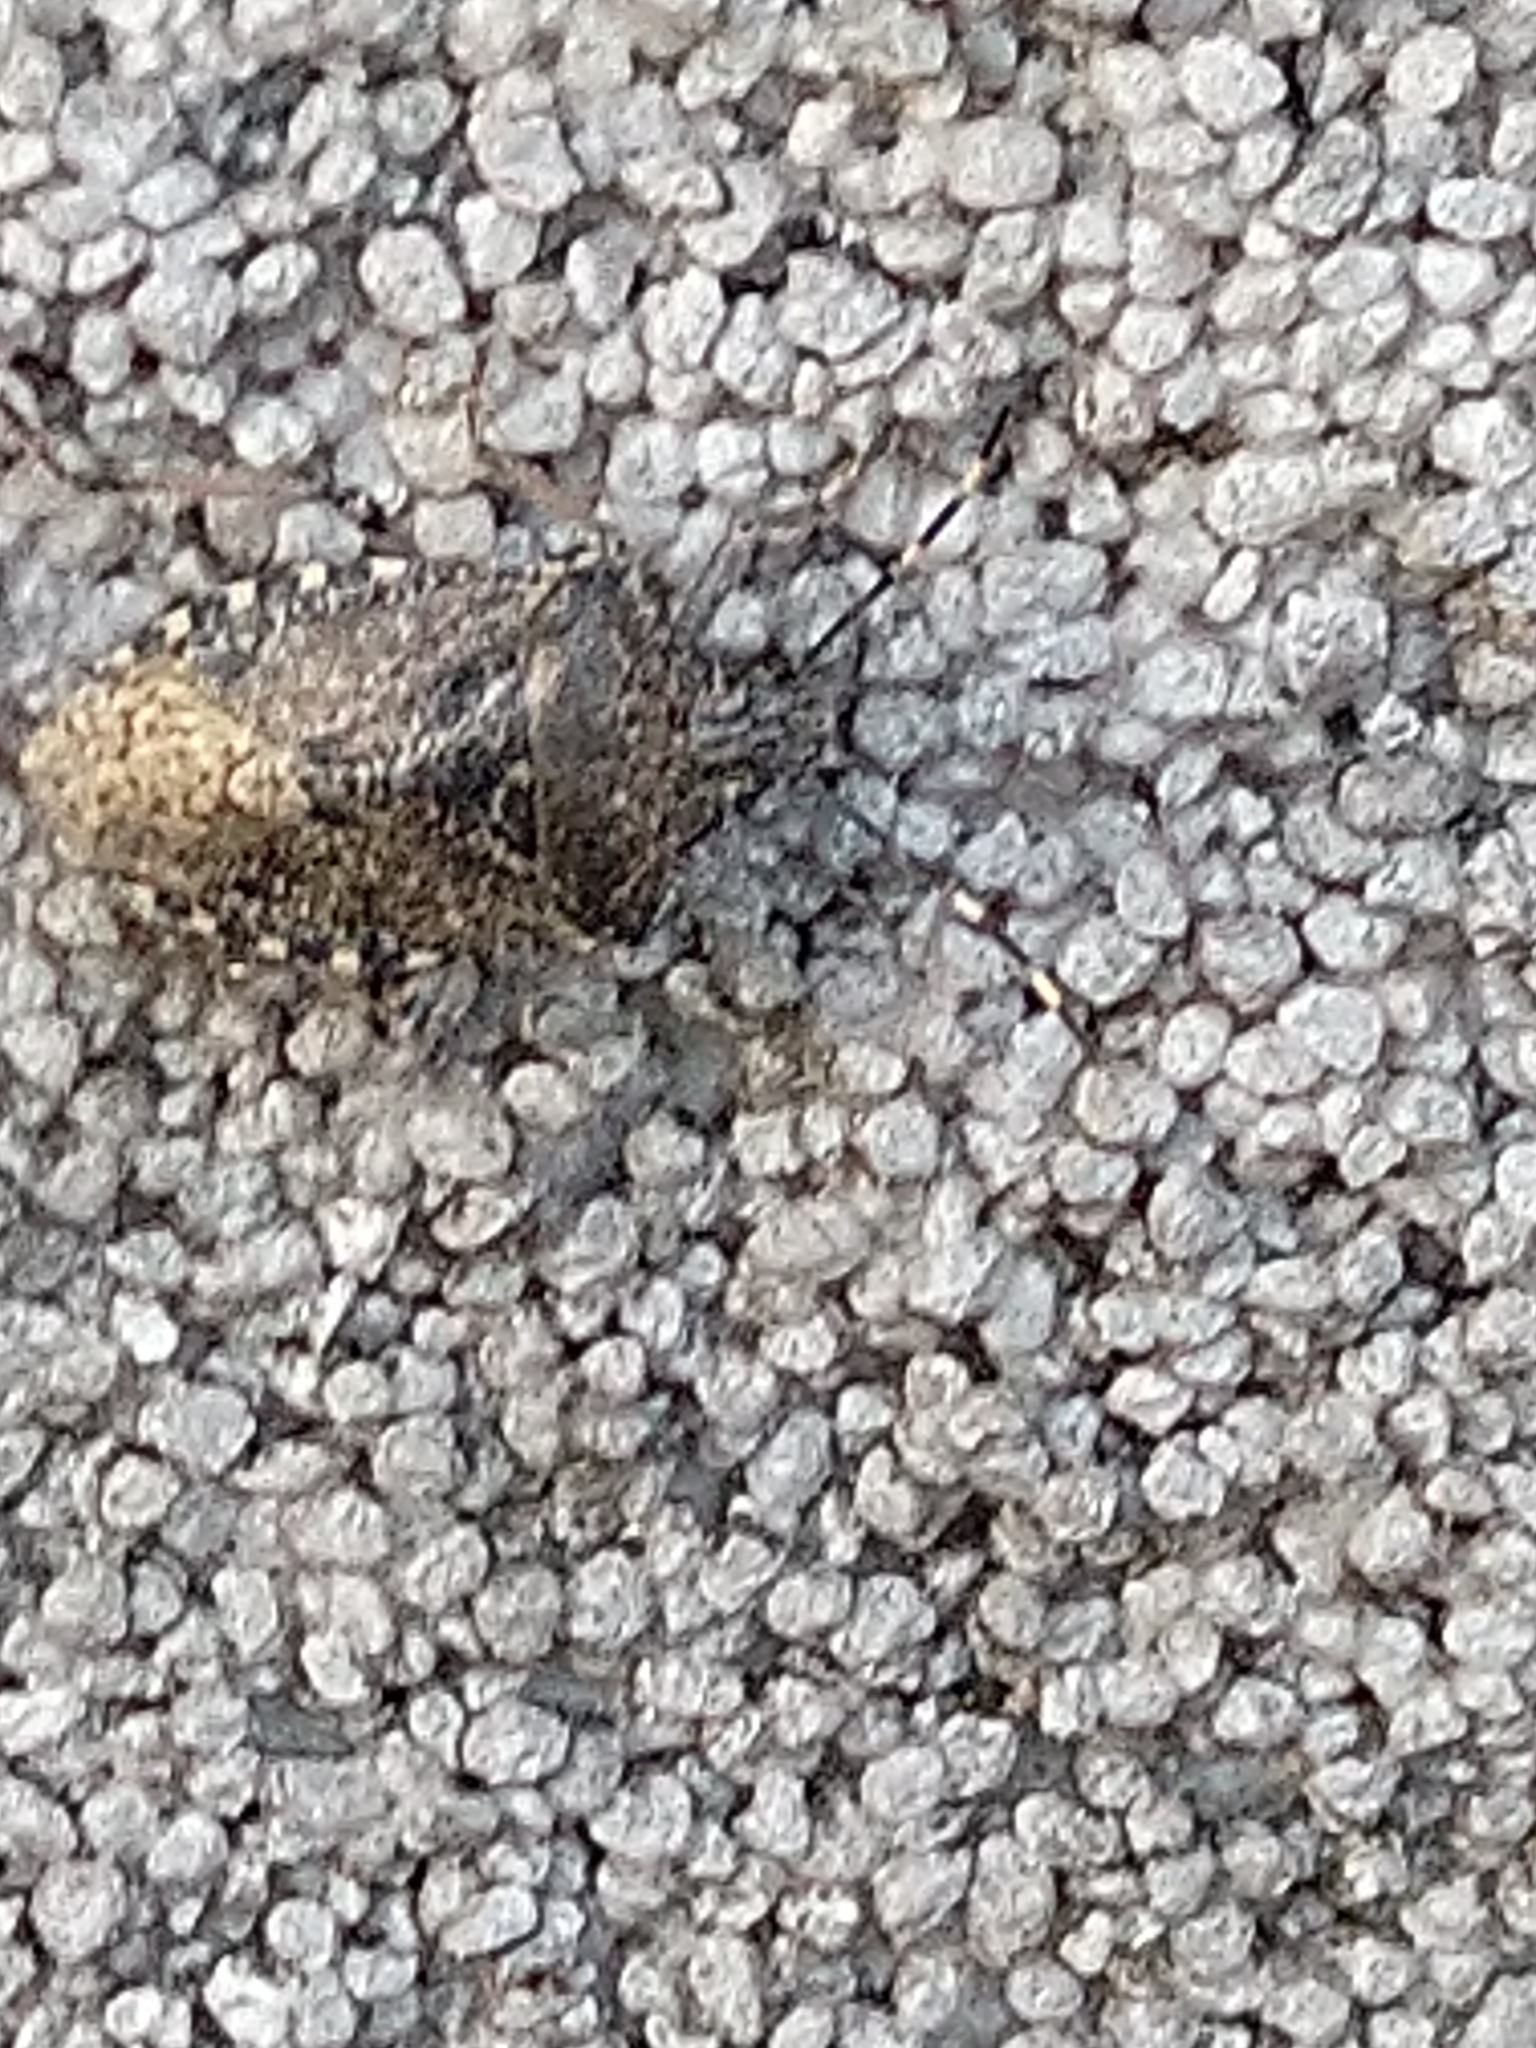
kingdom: Animalia
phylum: Arthropoda
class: Insecta
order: Hemiptera
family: Pentatomidae
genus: Rhaphigaster
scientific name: Rhaphigaster nebulosa
